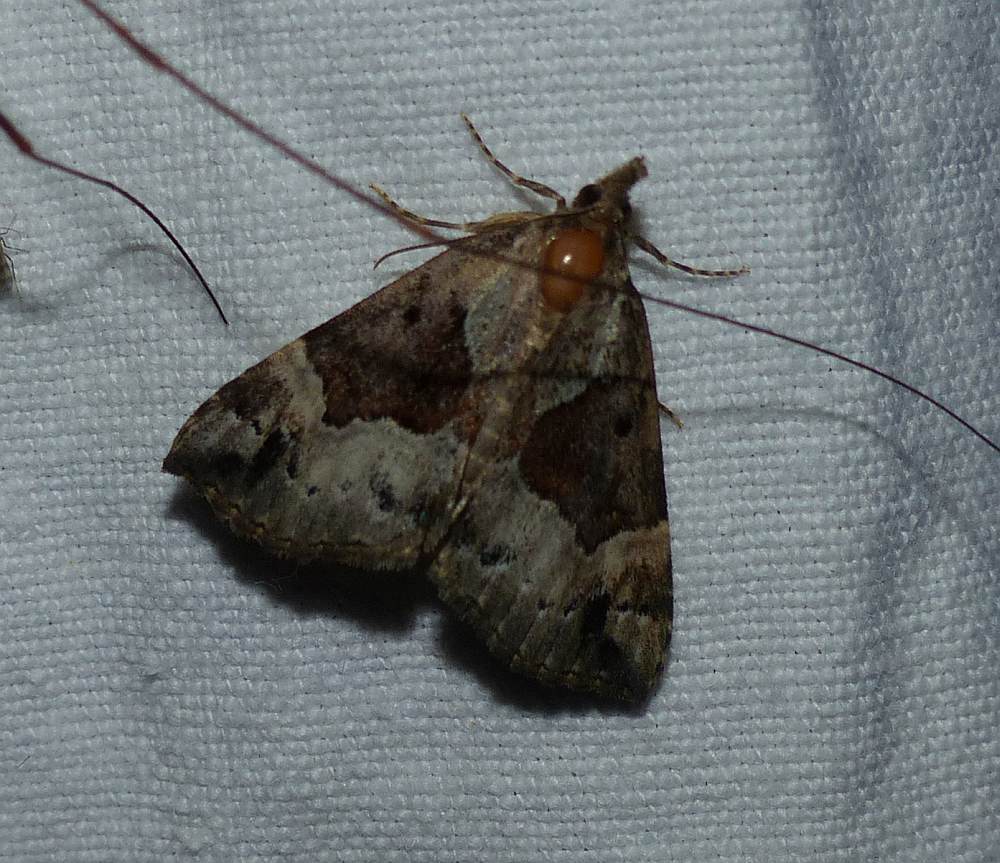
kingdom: Animalia
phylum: Arthropoda
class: Insecta
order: Lepidoptera
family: Erebidae
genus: Hypena
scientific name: Hypena palparia
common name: Mottled bomolocha moth
